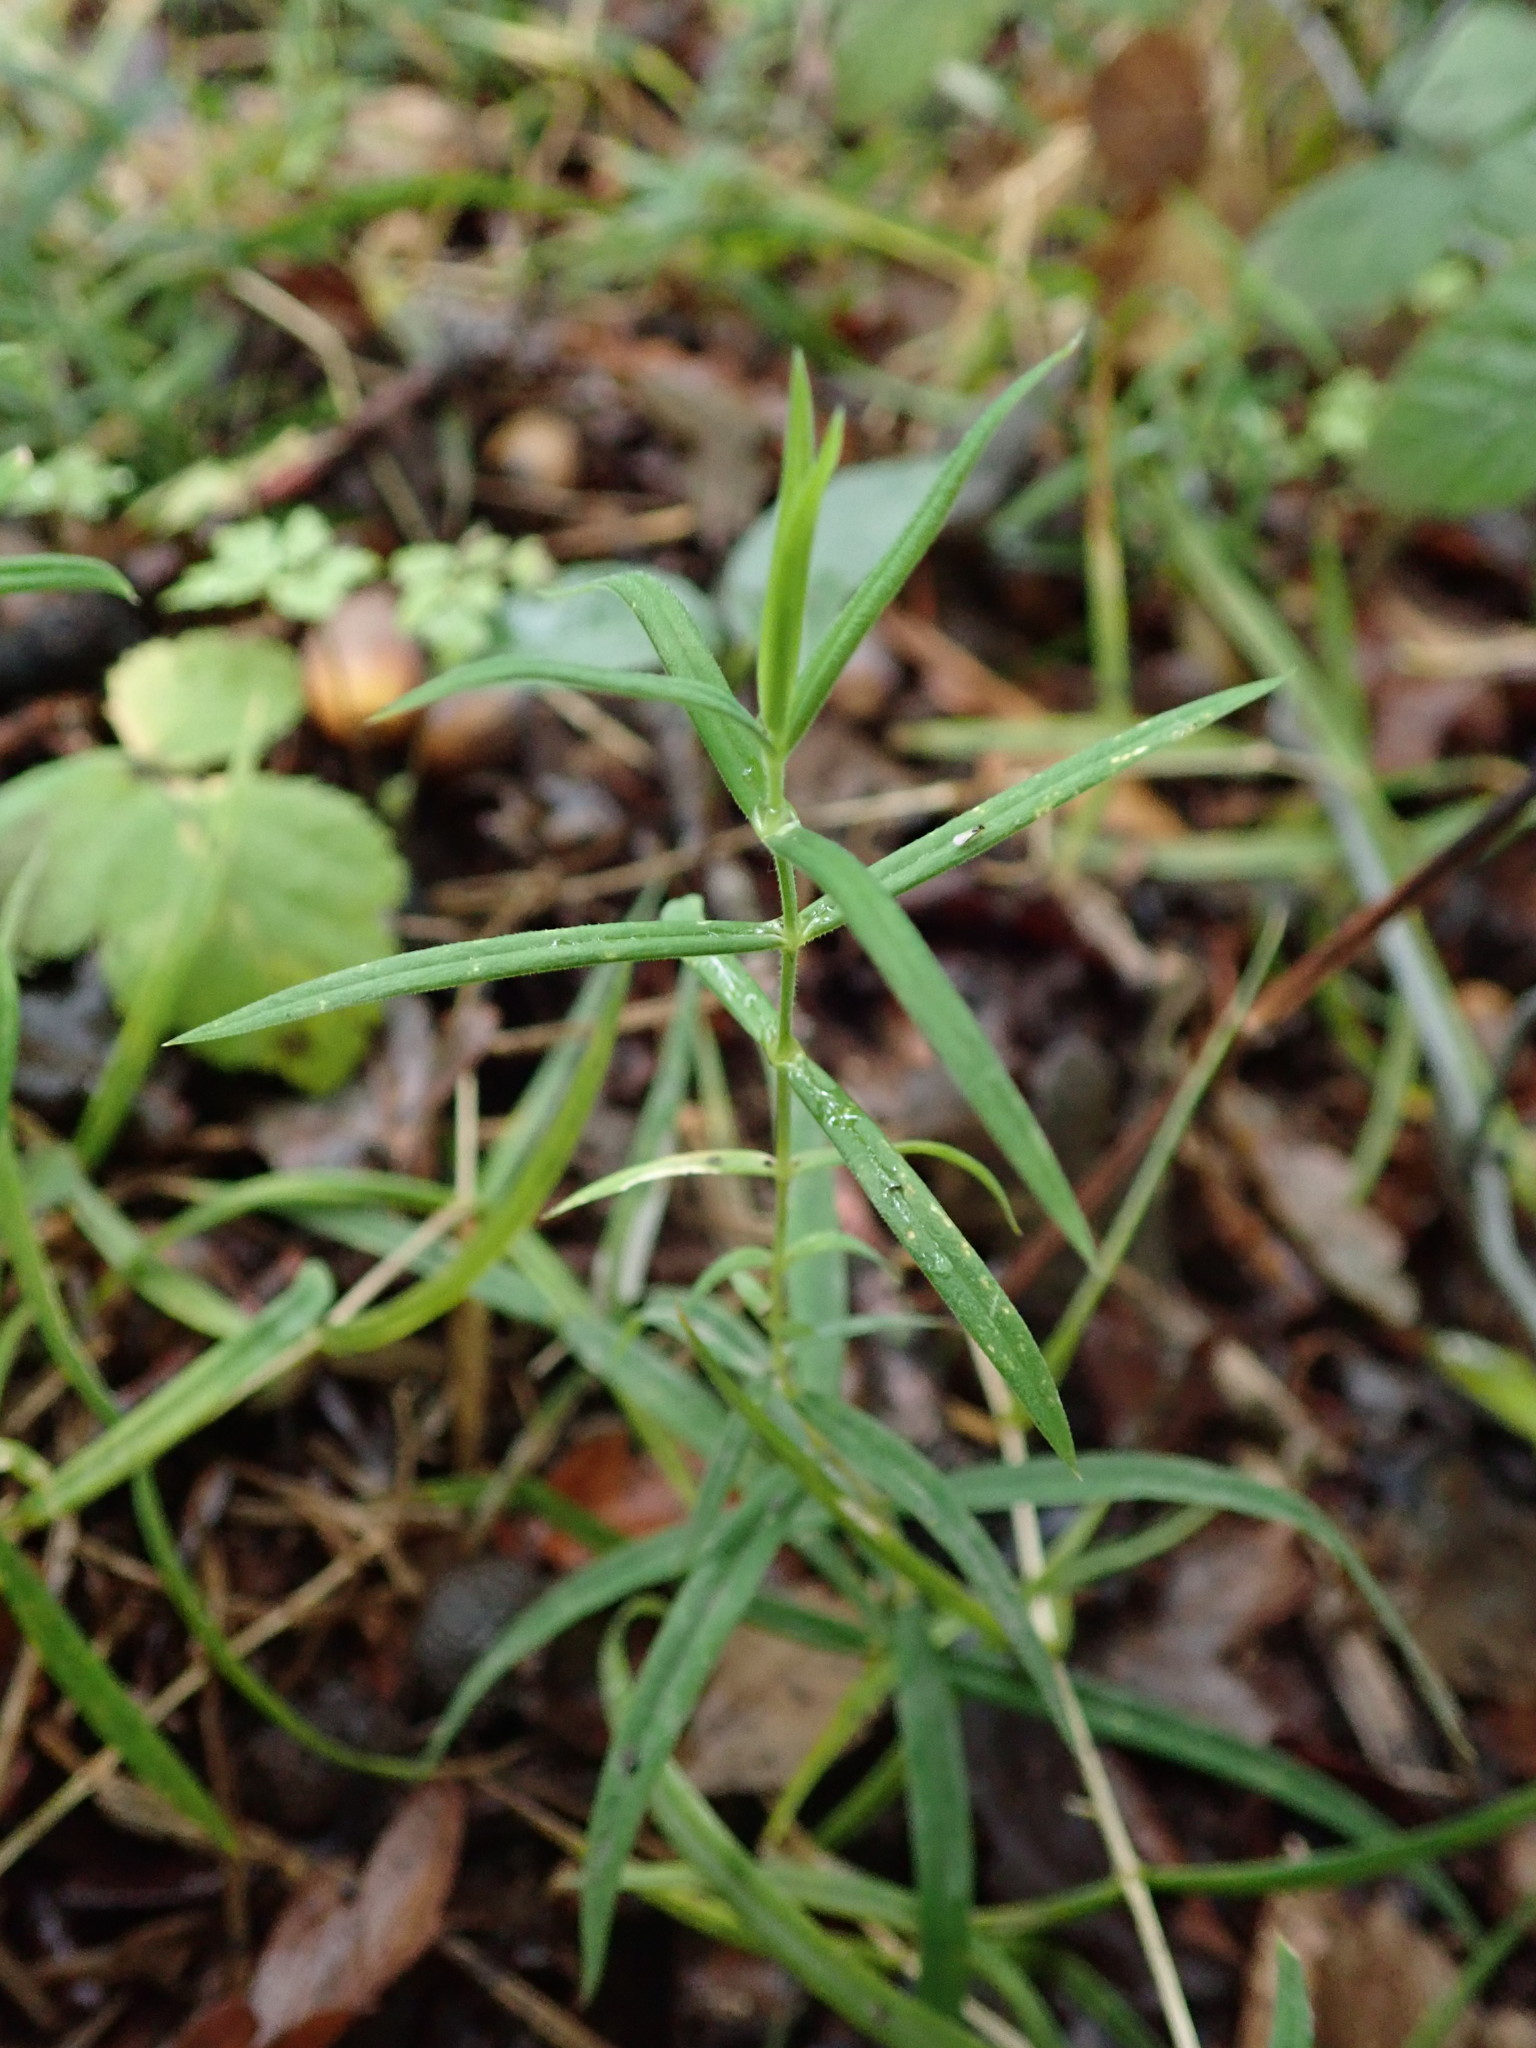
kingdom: Plantae
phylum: Tracheophyta
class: Magnoliopsida
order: Caryophyllales
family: Caryophyllaceae
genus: Rabelera
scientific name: Rabelera holostea
